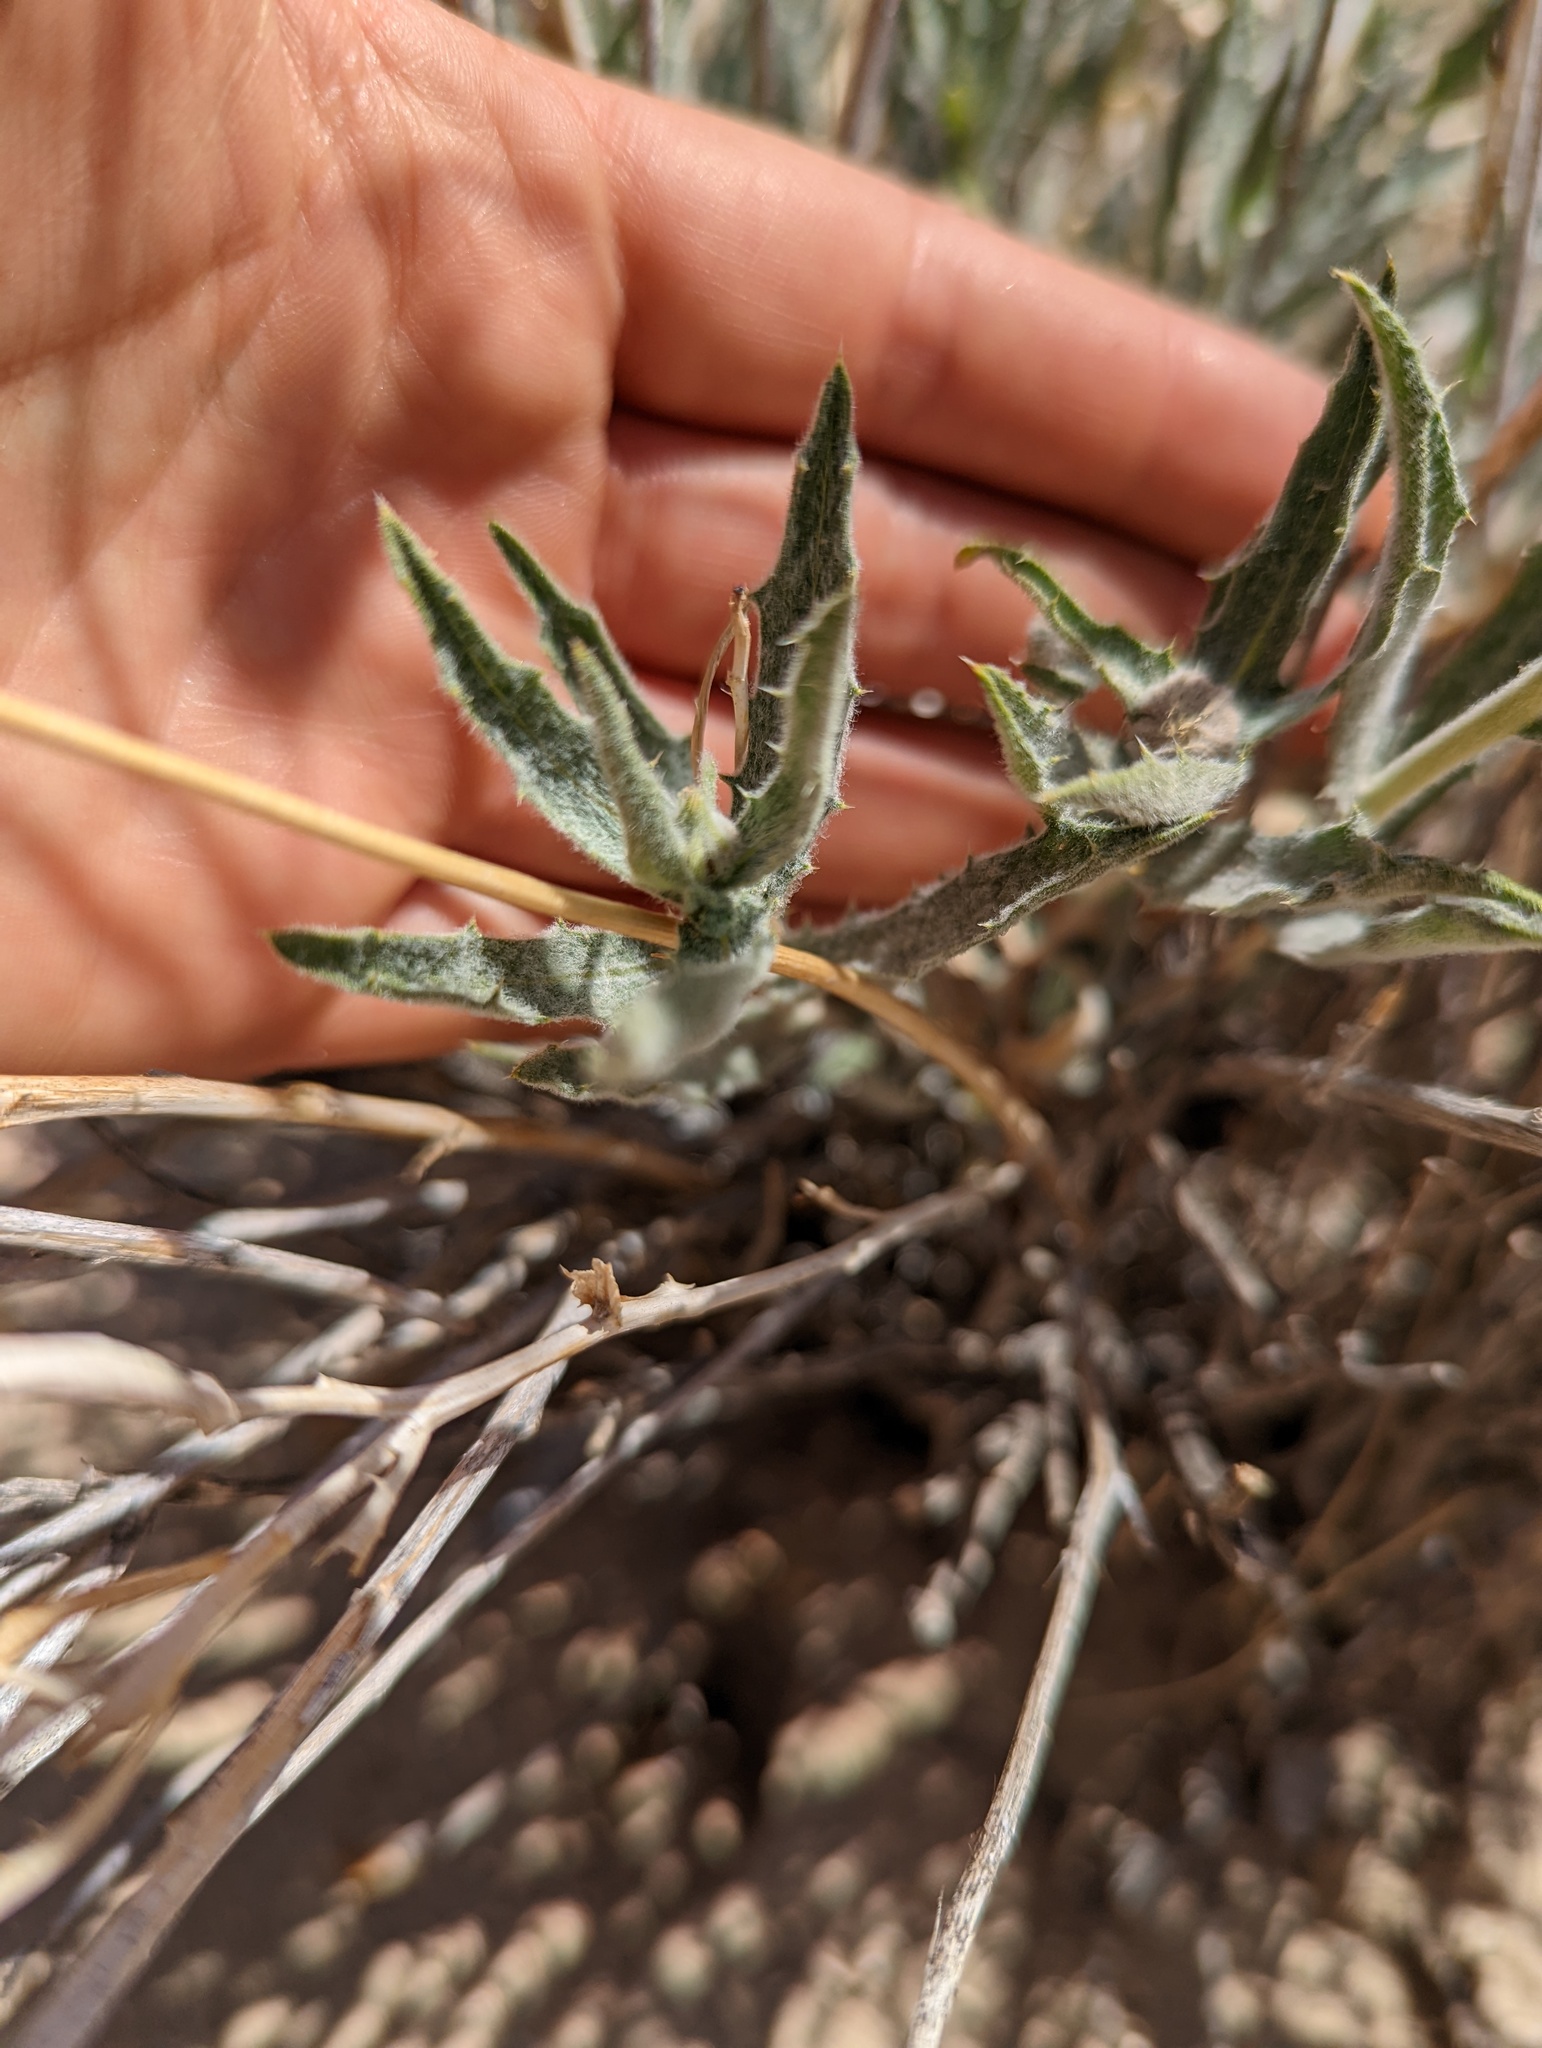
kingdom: Plantae
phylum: Tracheophyta
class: Magnoliopsida
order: Asterales
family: Asteraceae
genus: Xylorhiza
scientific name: Xylorhiza tortifolia
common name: Hurt-leaf woody-aster
